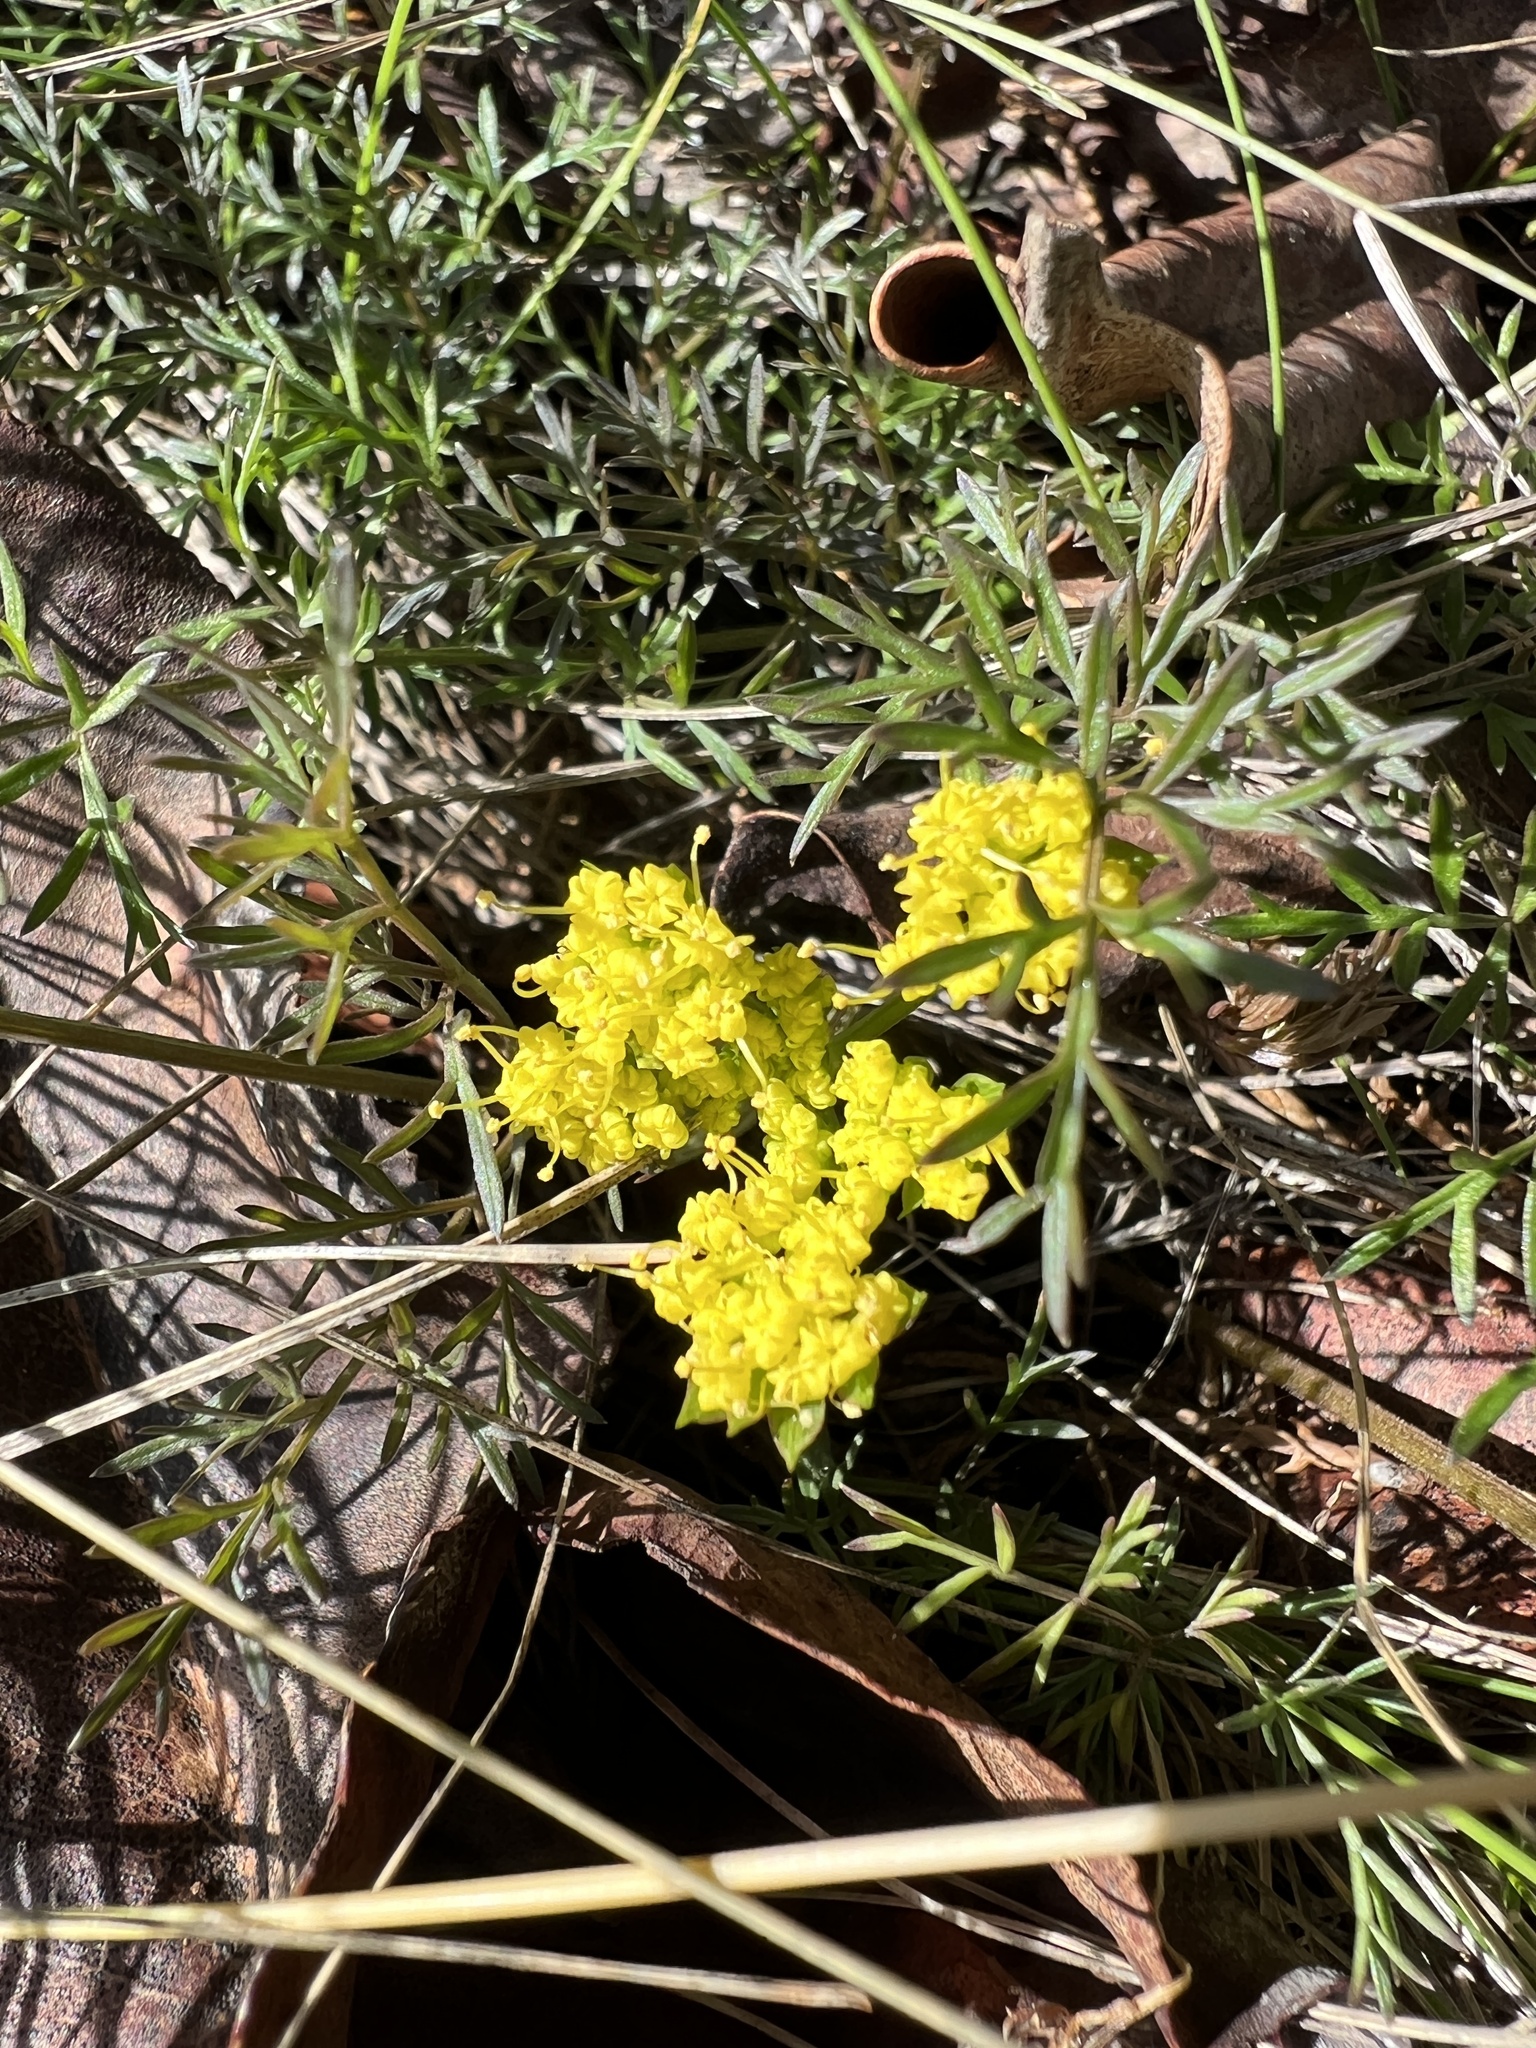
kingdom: Plantae
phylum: Tracheophyta
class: Magnoliopsida
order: Apiales
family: Apiaceae
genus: Lomatium
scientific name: Lomatium utriculatum
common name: Fine-leaf desert-parsley
